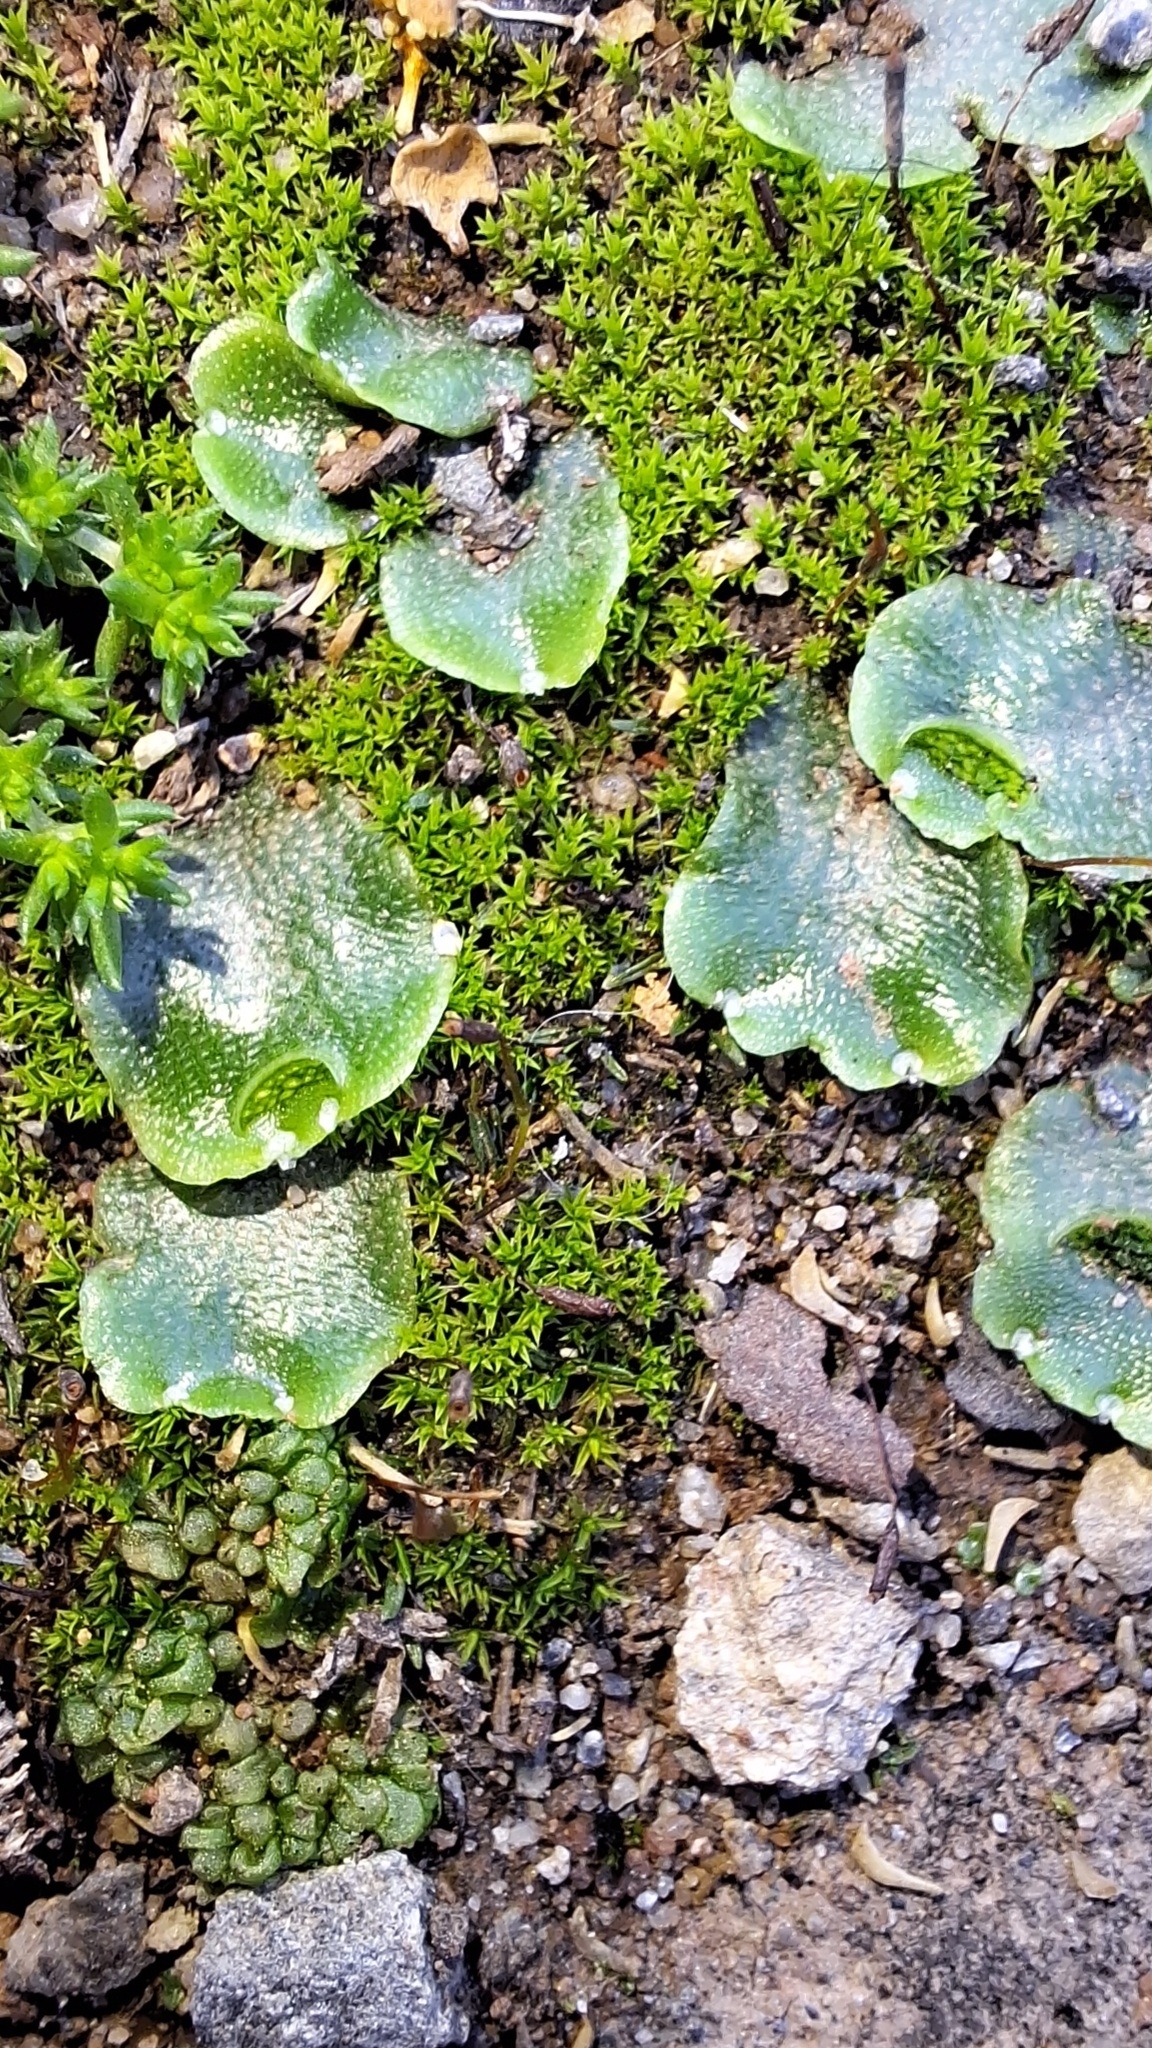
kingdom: Plantae
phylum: Marchantiophyta
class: Marchantiopsida
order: Lunulariales
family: Lunulariaceae
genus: Lunularia
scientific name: Lunularia cruciata
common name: Crescent-cup liverwort
